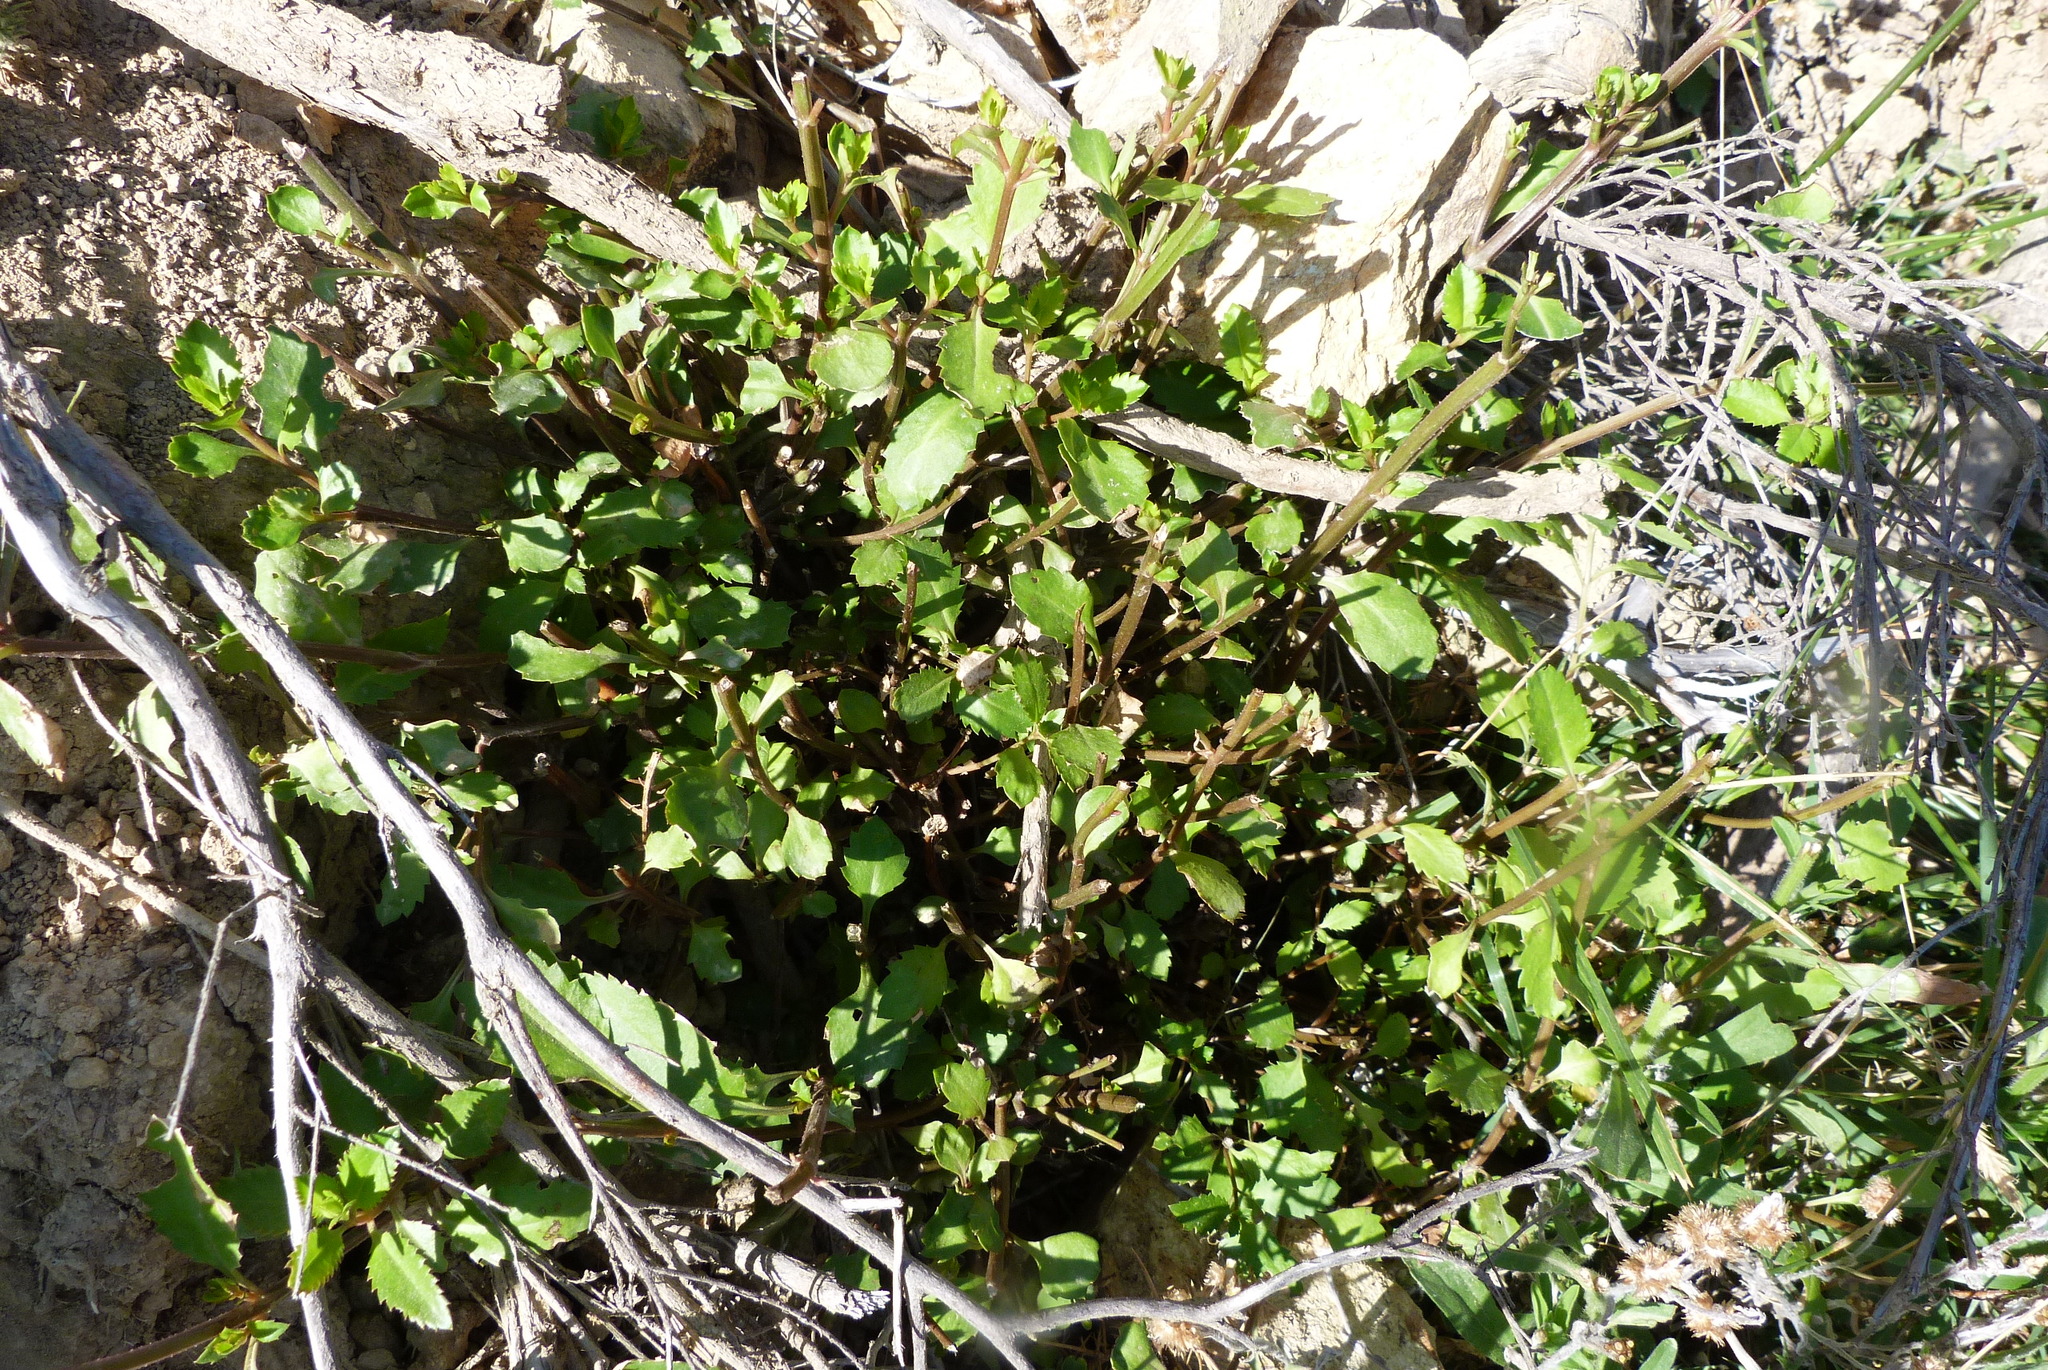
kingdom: Plantae
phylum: Tracheophyta
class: Magnoliopsida
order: Saxifragales
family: Haloragaceae
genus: Haloragis
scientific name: Haloragis erecta
